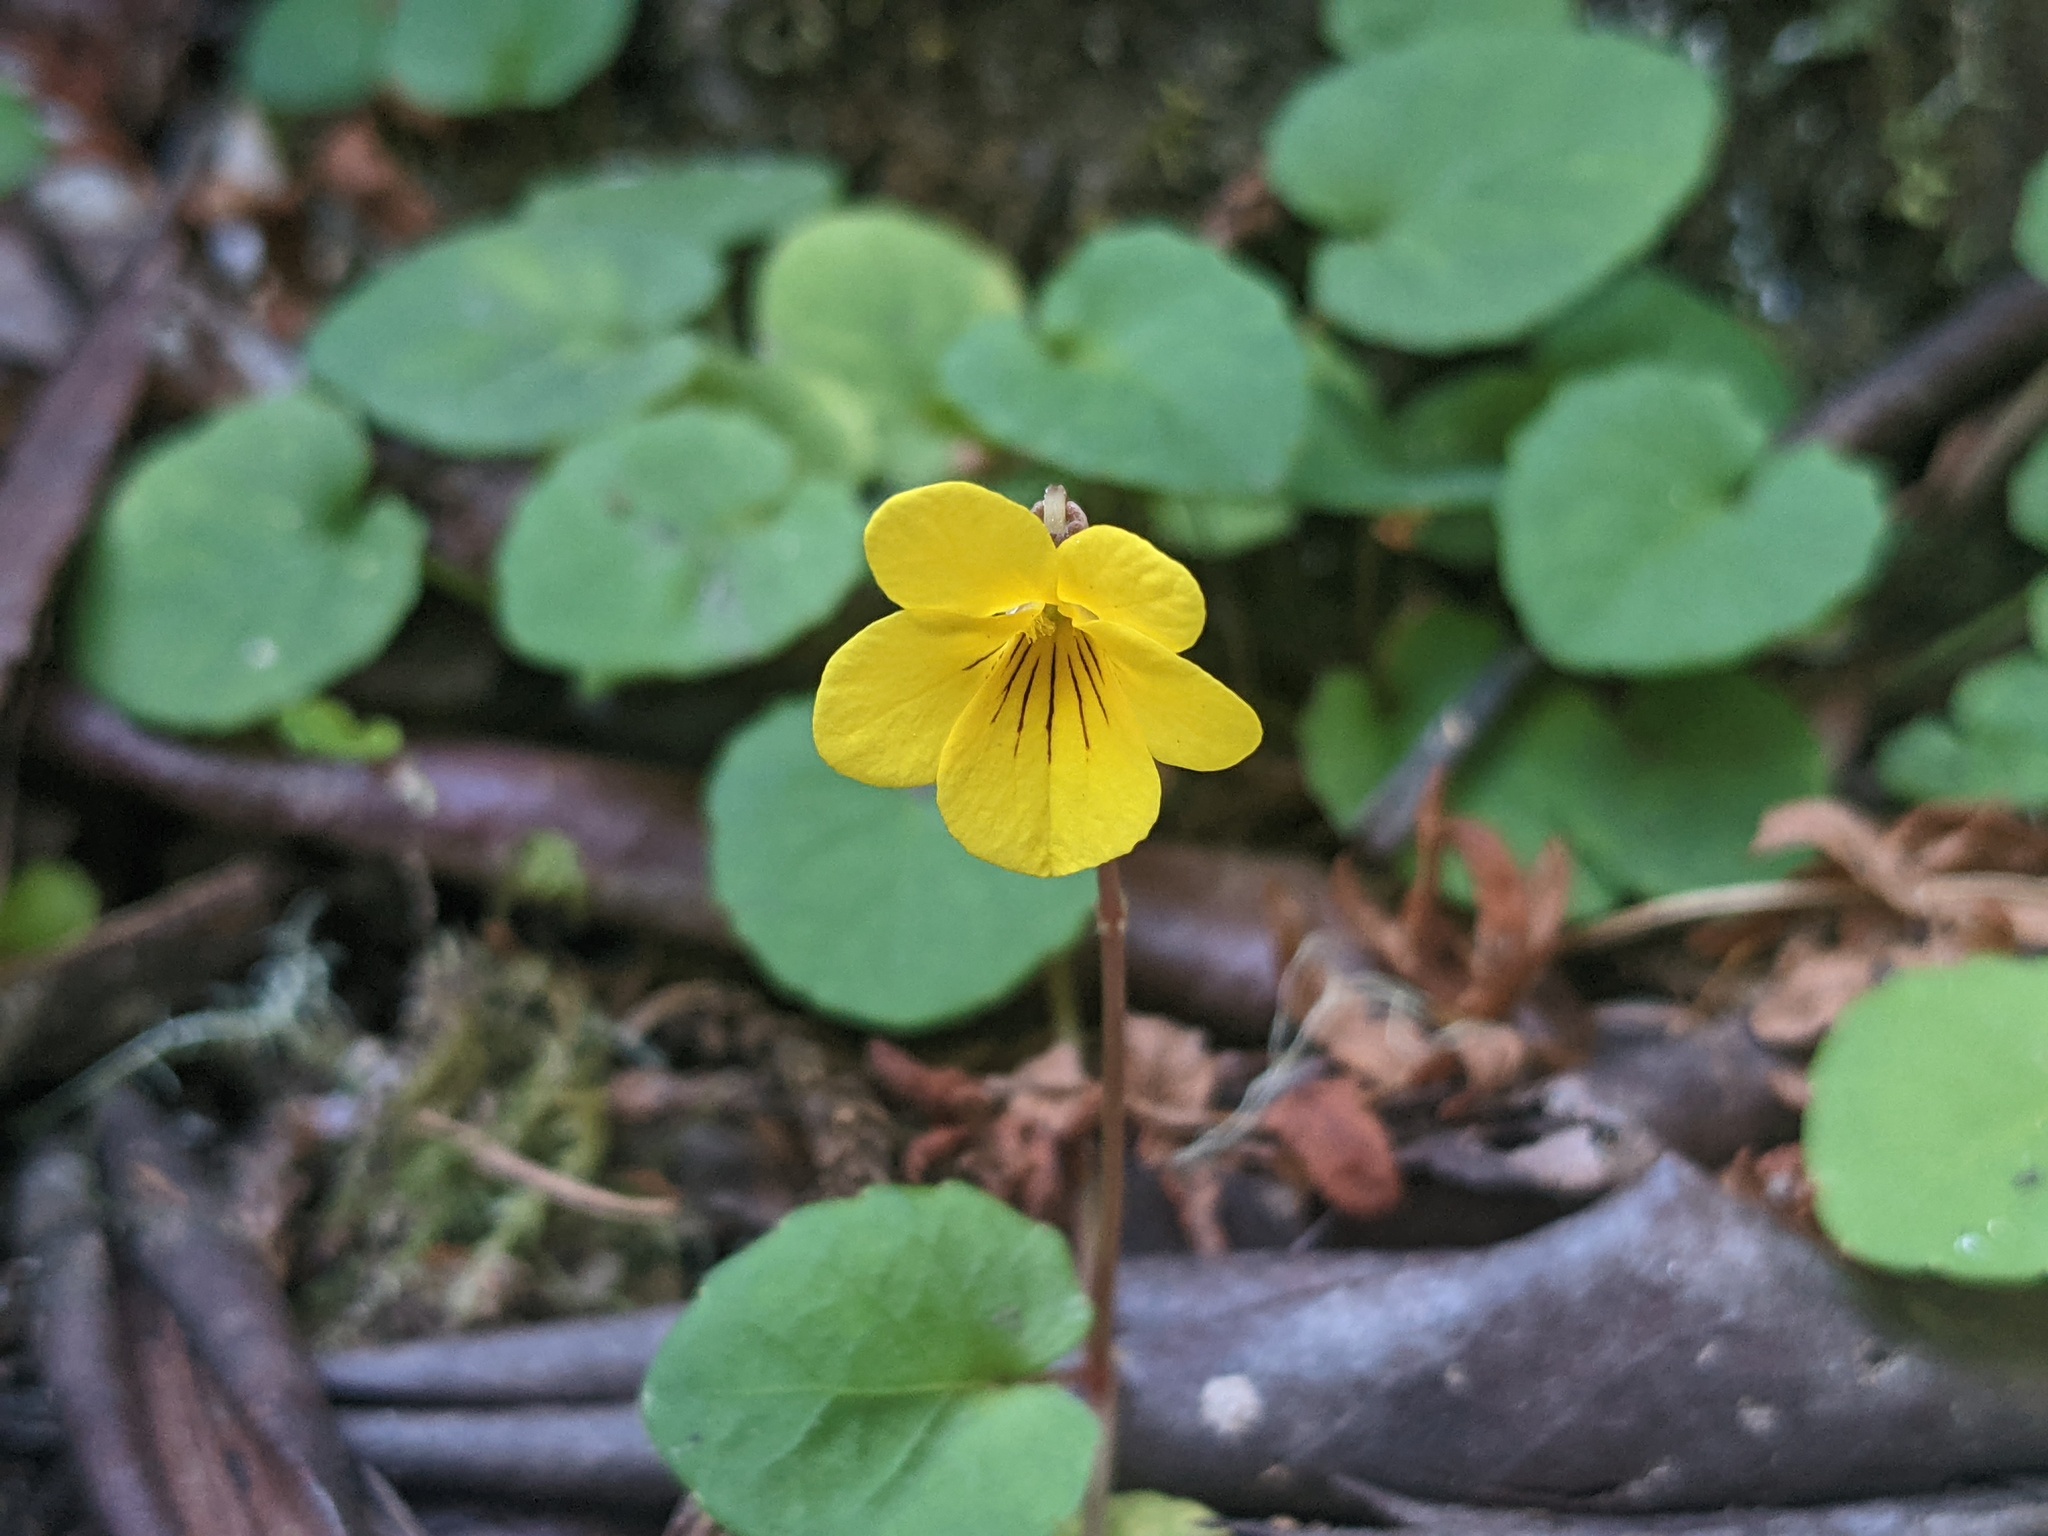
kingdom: Plantae
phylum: Tracheophyta
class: Magnoliopsida
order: Malpighiales
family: Violaceae
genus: Viola
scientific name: Viola sempervirens
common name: Evergreen violet
